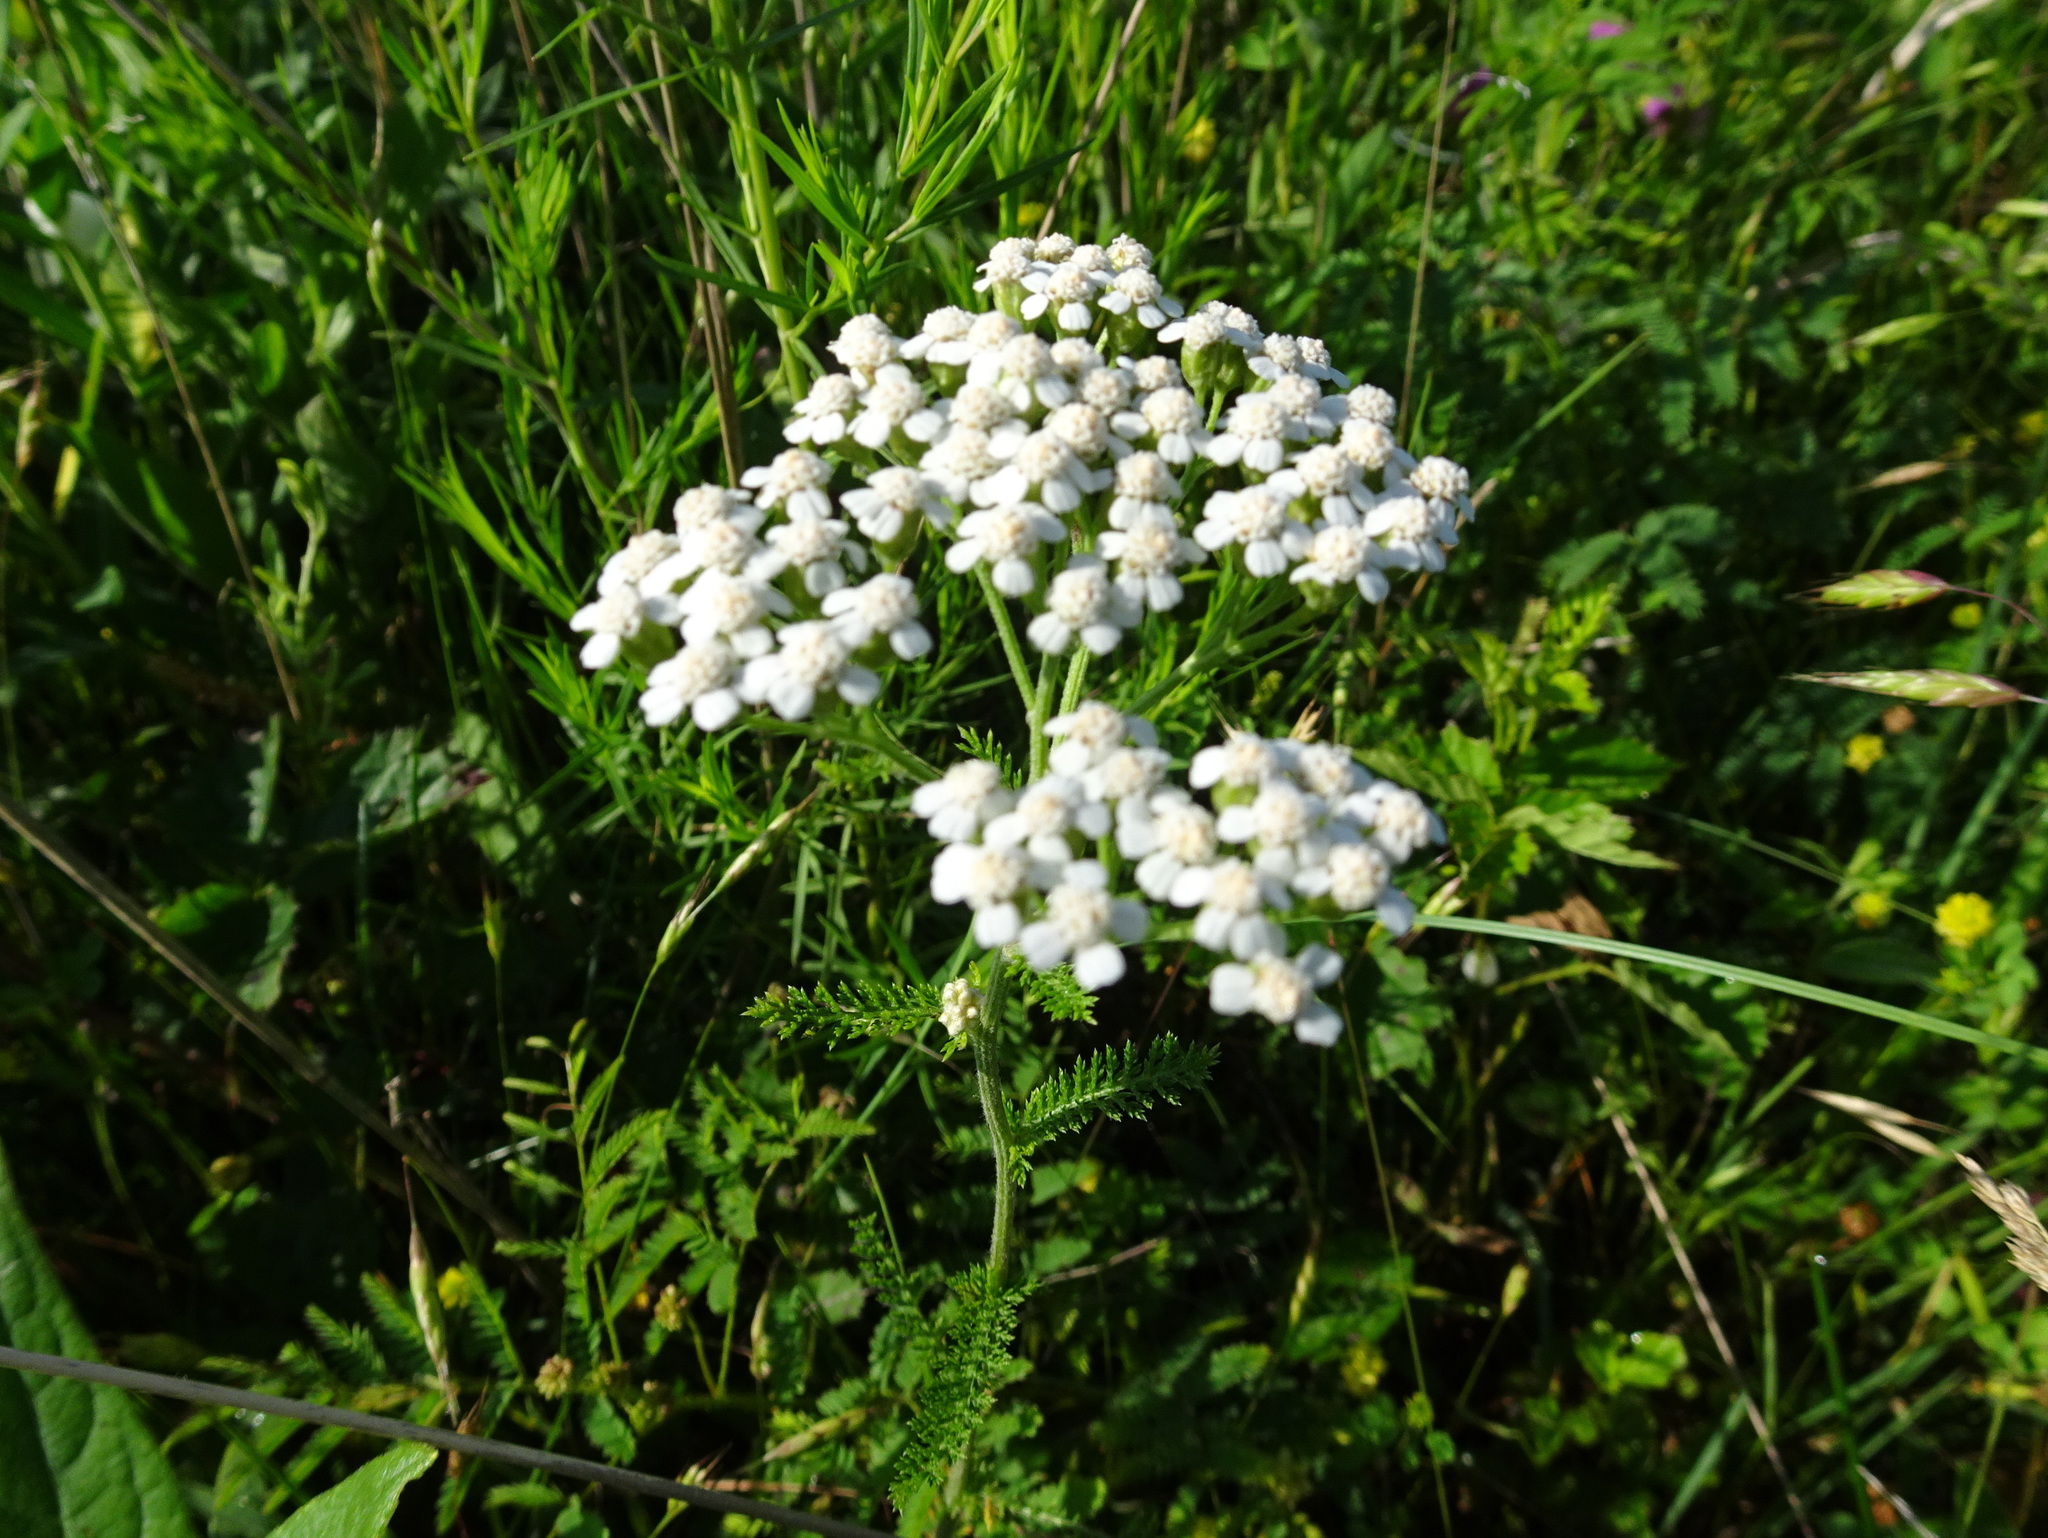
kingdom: Plantae
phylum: Tracheophyta
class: Magnoliopsida
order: Asterales
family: Asteraceae
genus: Achillea
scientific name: Achillea millefolium
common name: Yarrow
